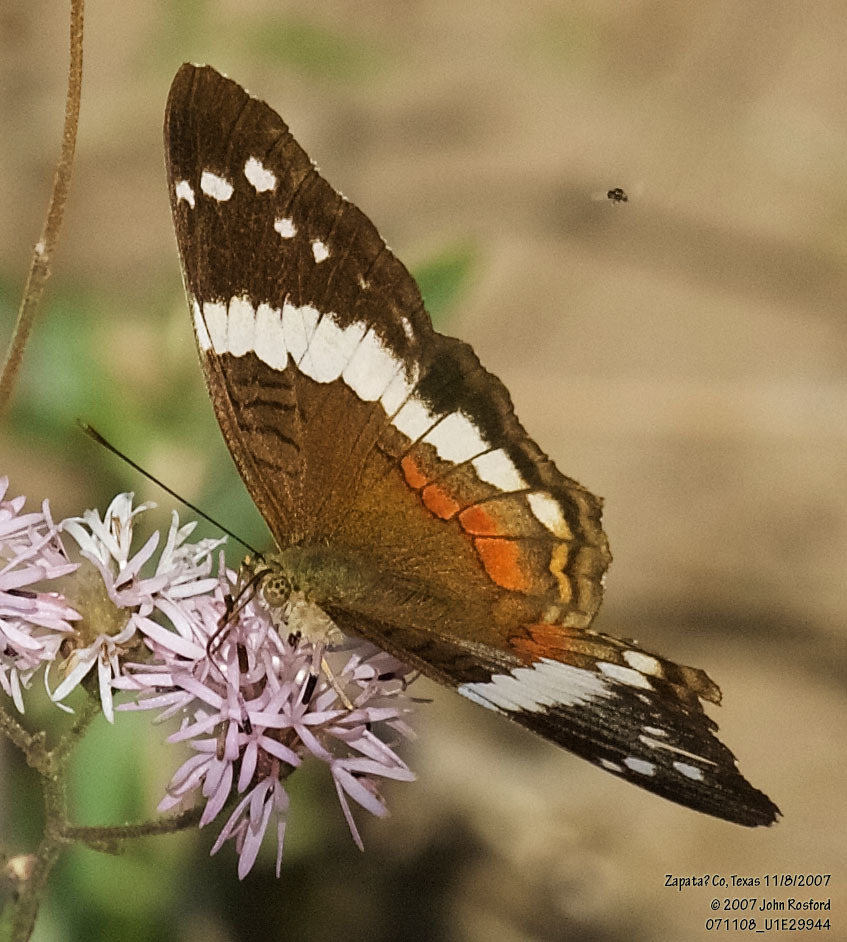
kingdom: Animalia
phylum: Arthropoda
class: Insecta
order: Lepidoptera
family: Nymphalidae
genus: Anartia
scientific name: Anartia fatima
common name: Banded peacock
